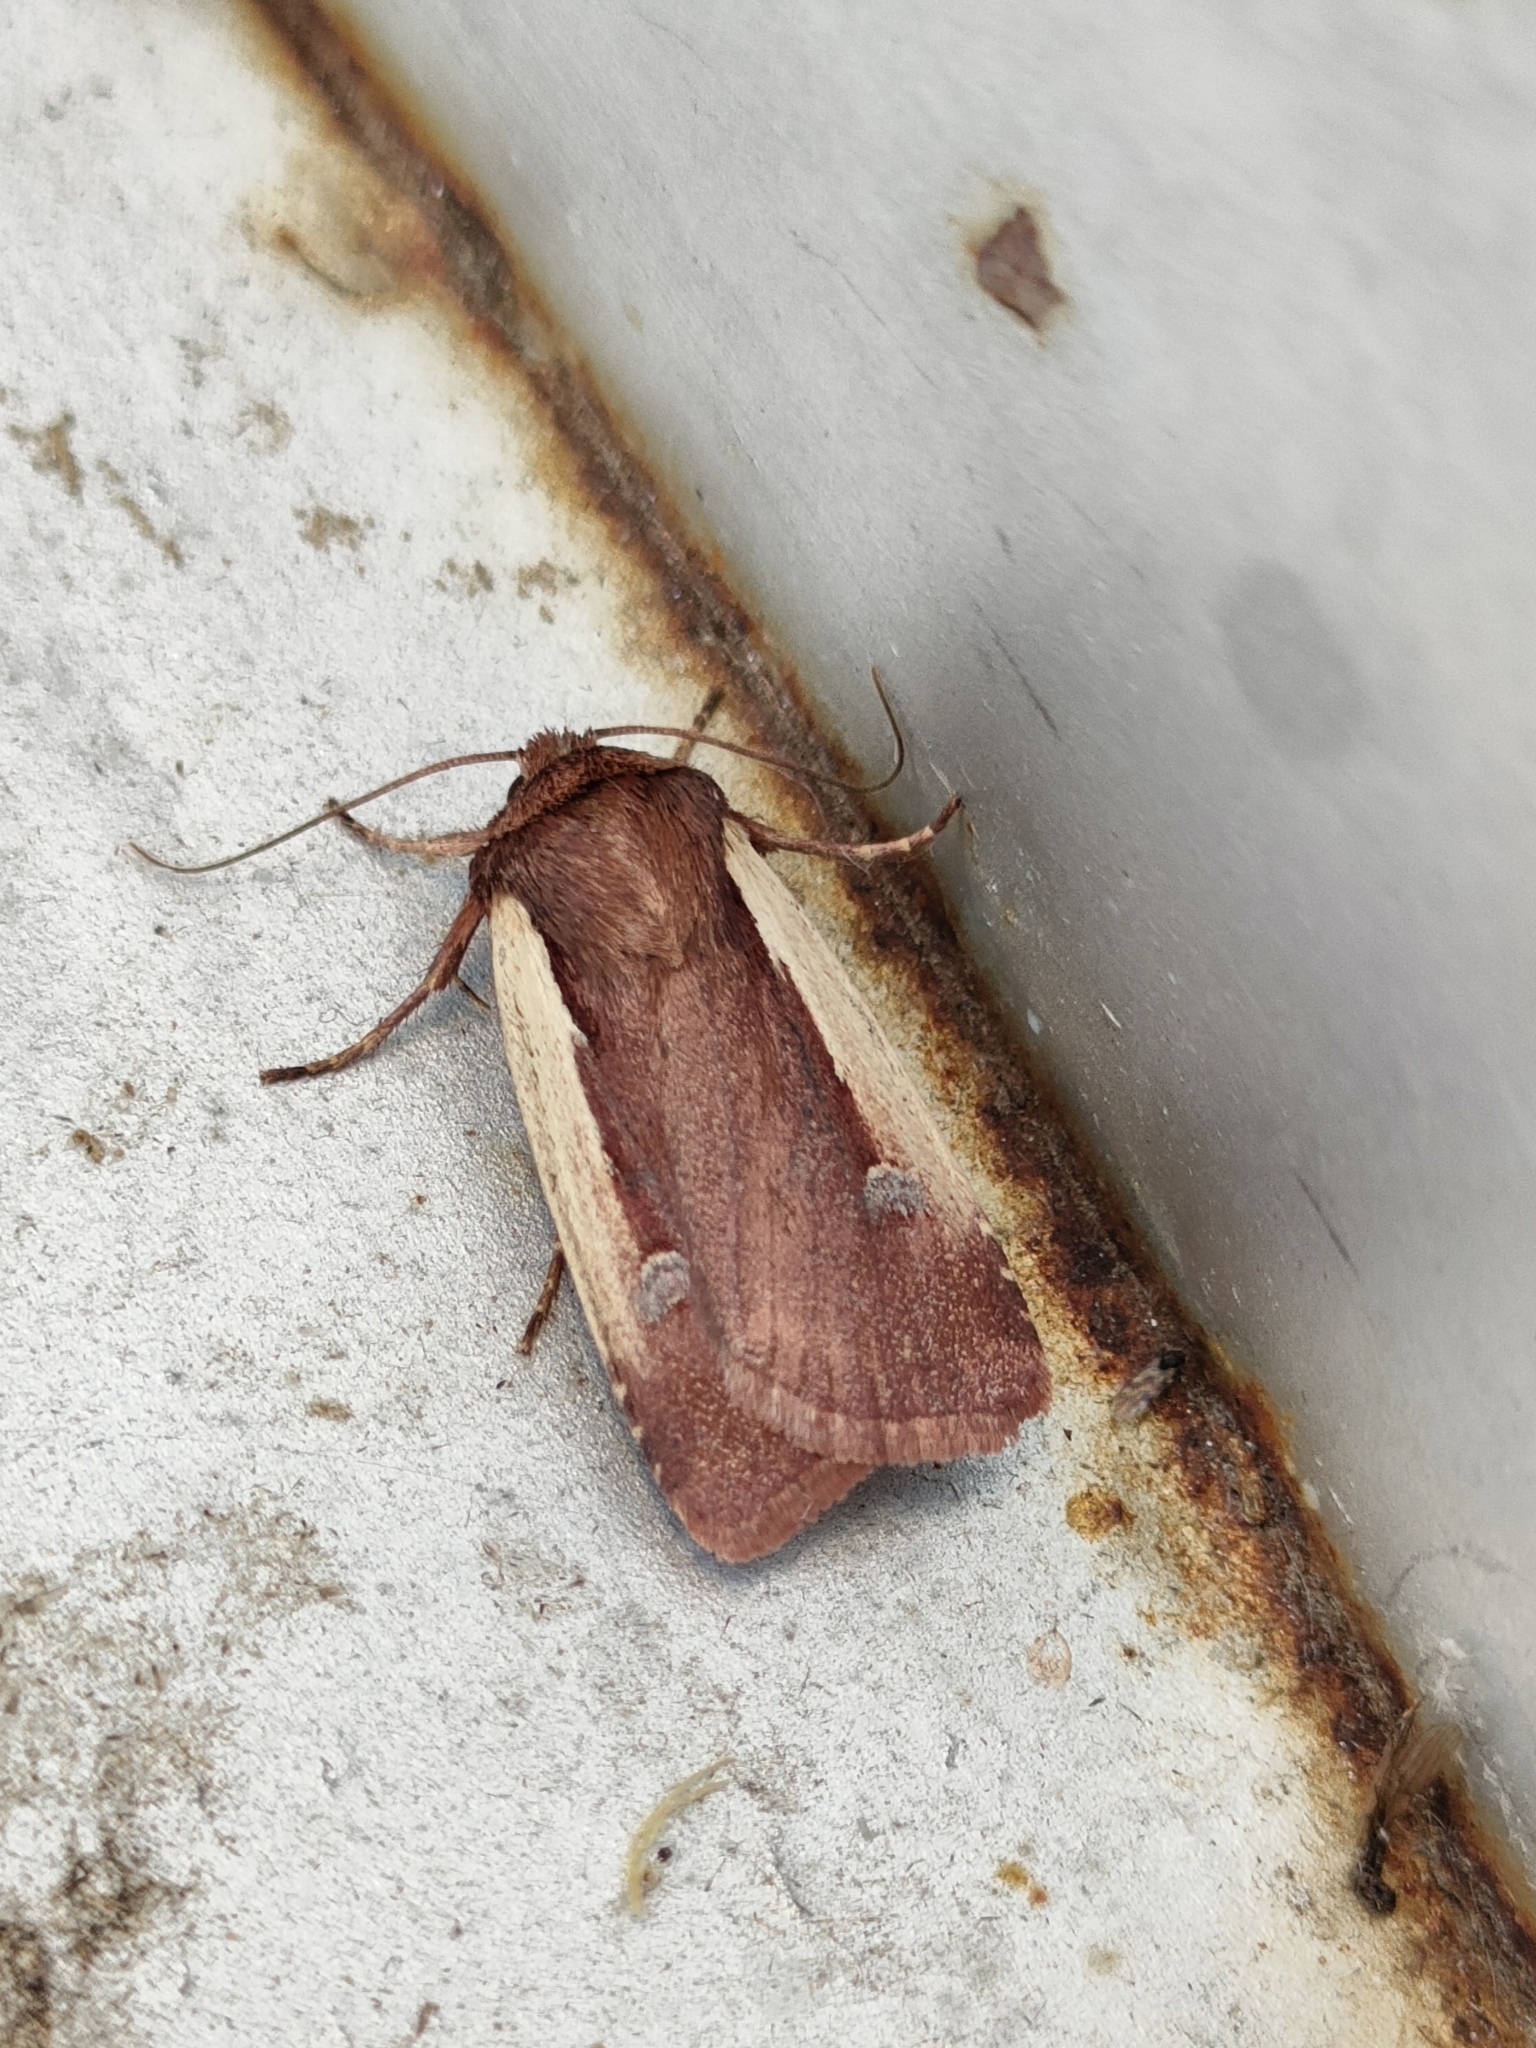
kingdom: Animalia
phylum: Arthropoda
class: Insecta
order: Lepidoptera
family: Noctuidae
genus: Ochropleura
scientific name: Ochropleura plecta
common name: Flame shoulder
